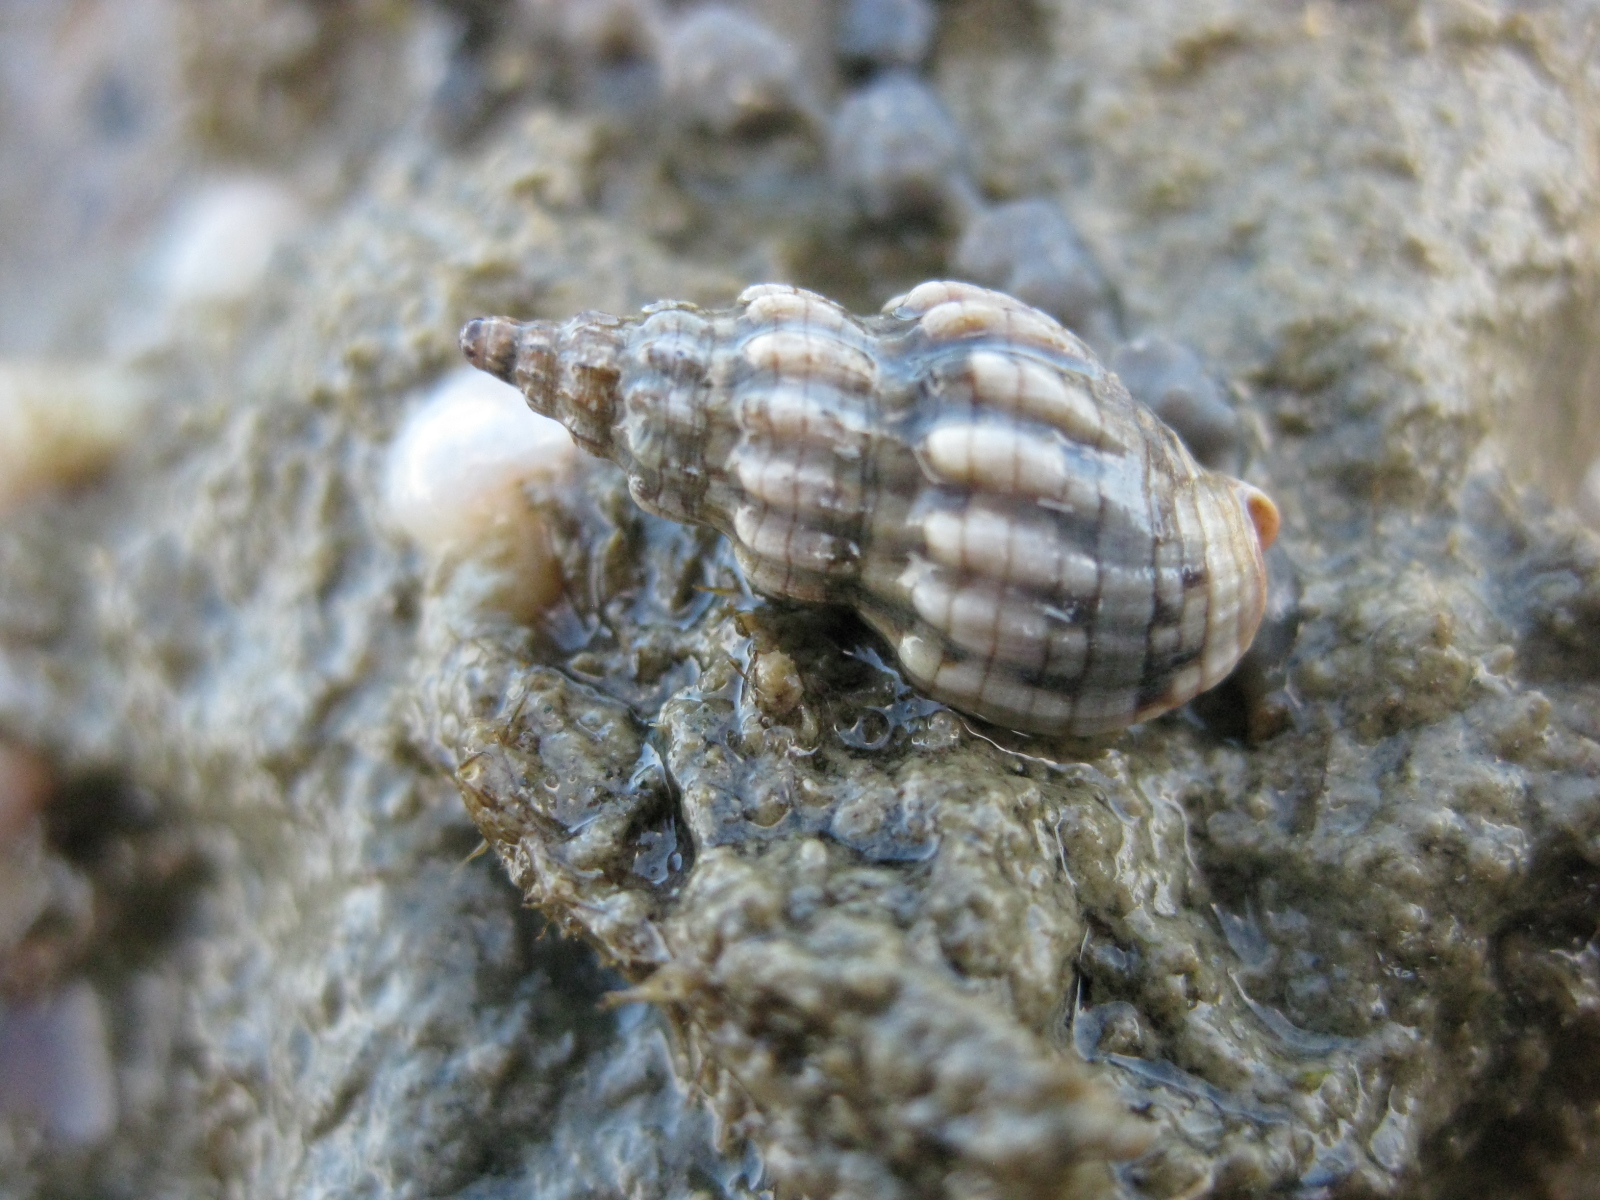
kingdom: Animalia
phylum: Mollusca
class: Gastropoda
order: Neogastropoda
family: Cominellidae
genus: Cominella
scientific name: Cominella quoyana
